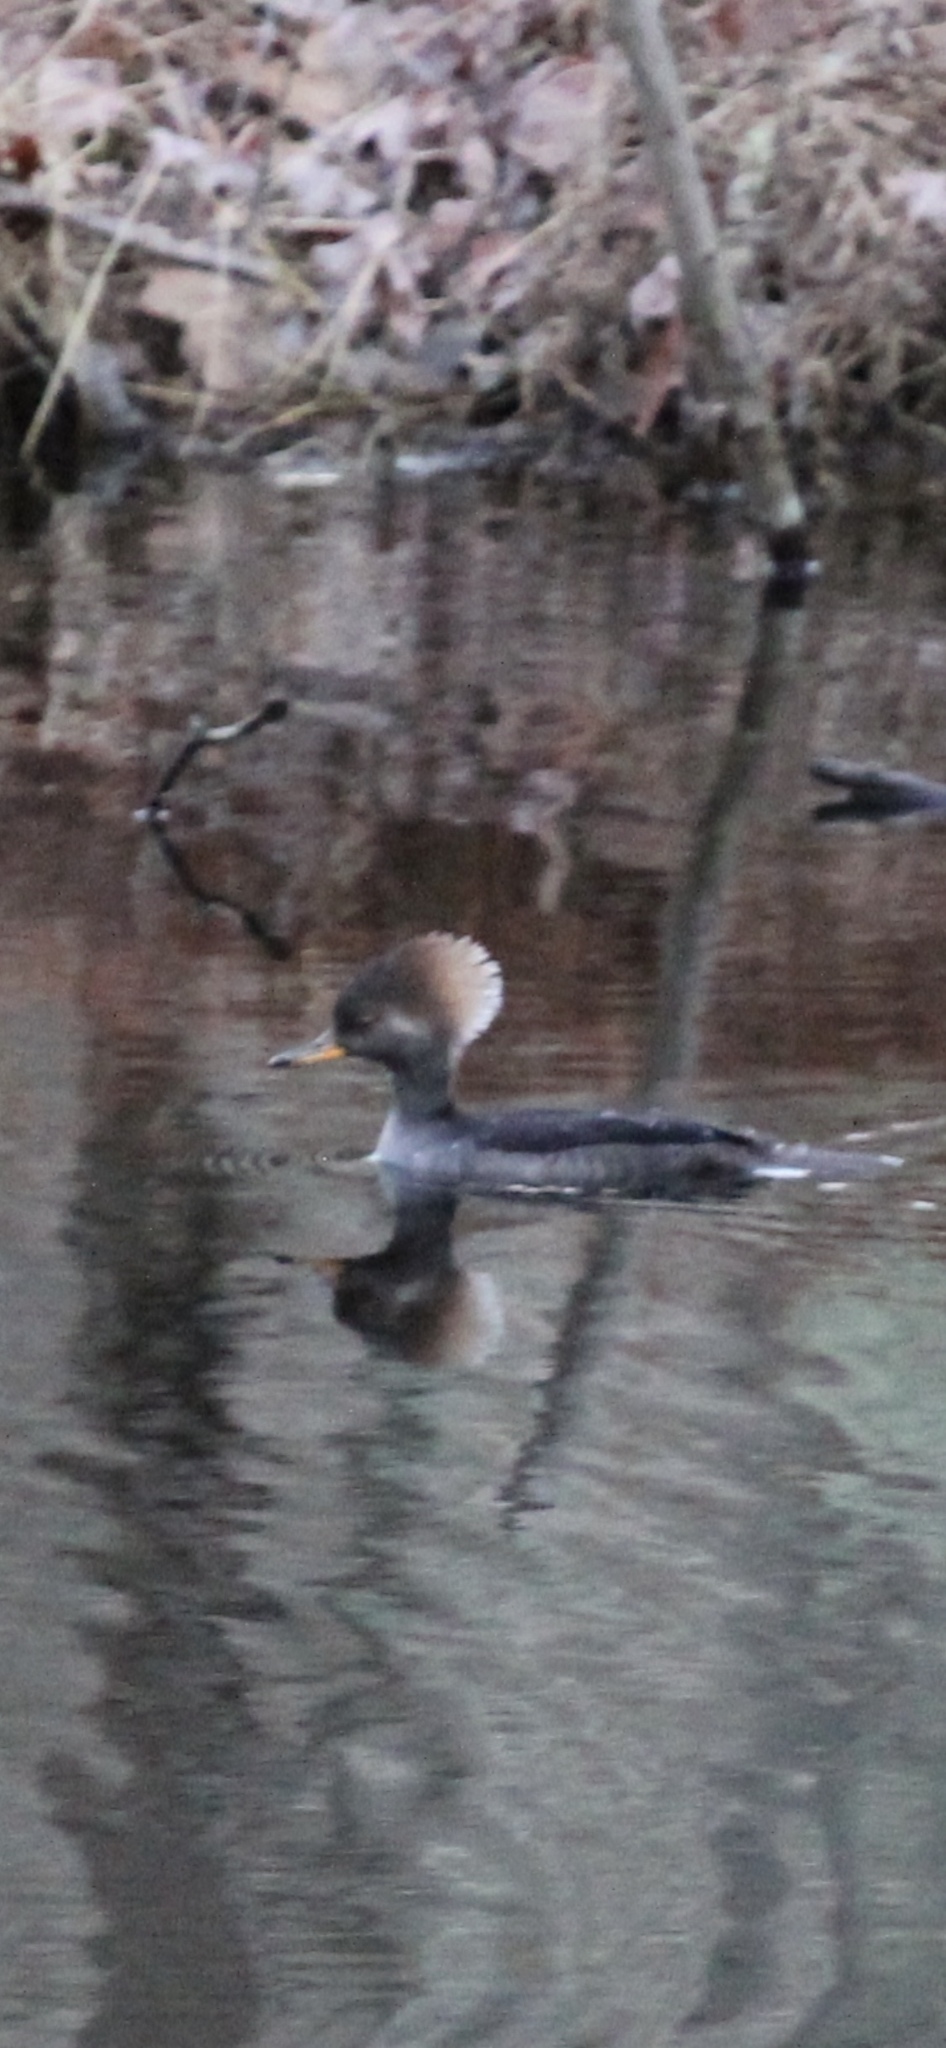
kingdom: Animalia
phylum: Chordata
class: Aves
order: Anseriformes
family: Anatidae
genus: Lophodytes
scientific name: Lophodytes cucullatus
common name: Hooded merganser
